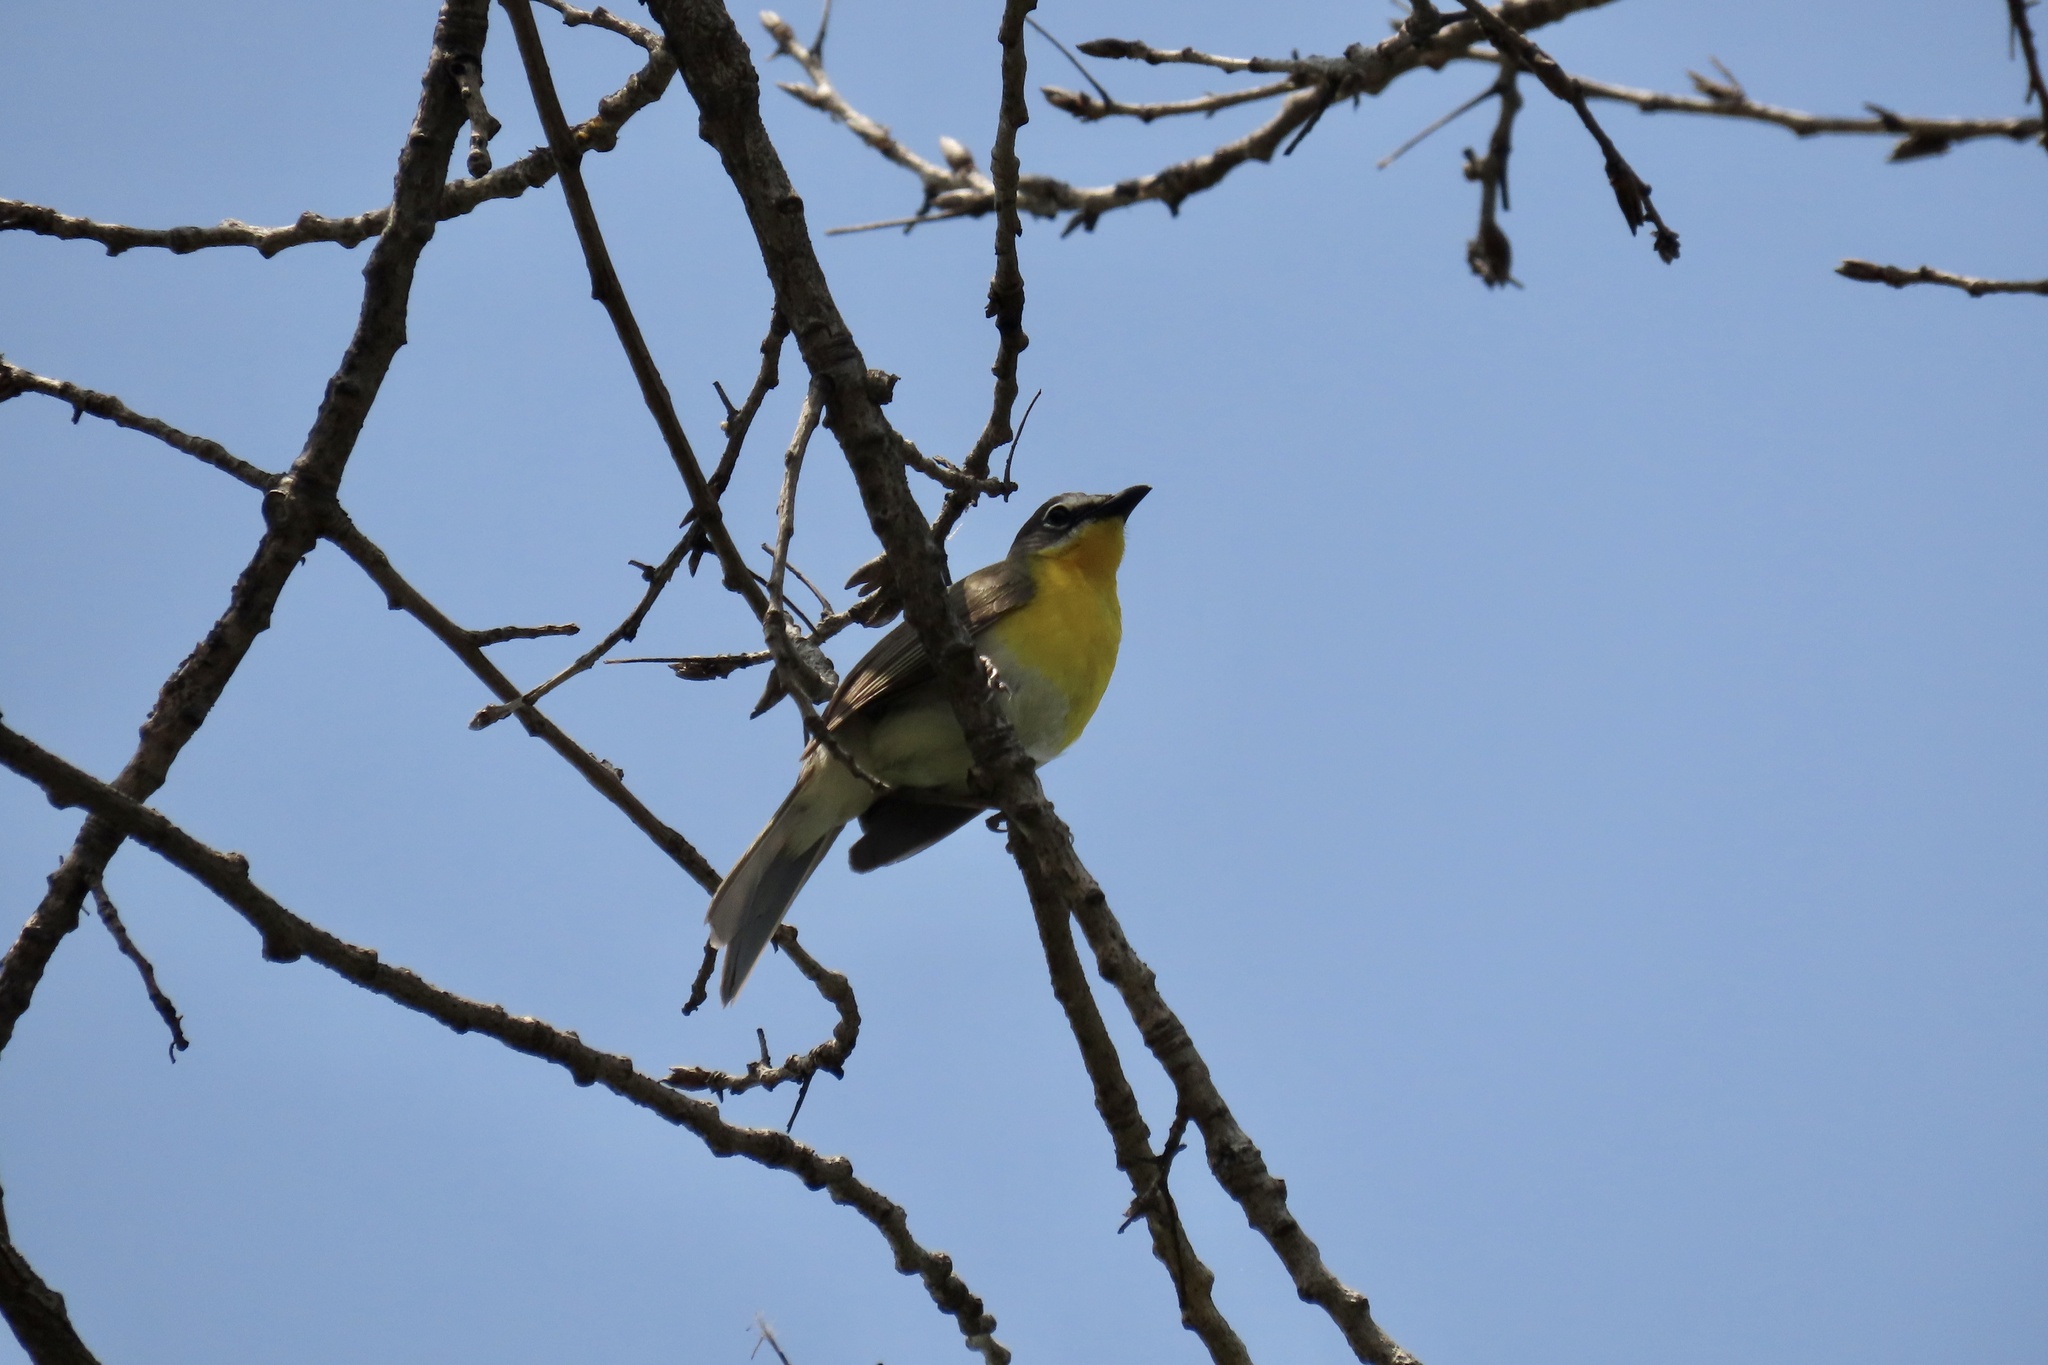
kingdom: Animalia
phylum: Chordata
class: Aves
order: Passeriformes
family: Parulidae
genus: Icteria
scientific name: Icteria virens
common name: Yellow-breasted chat
